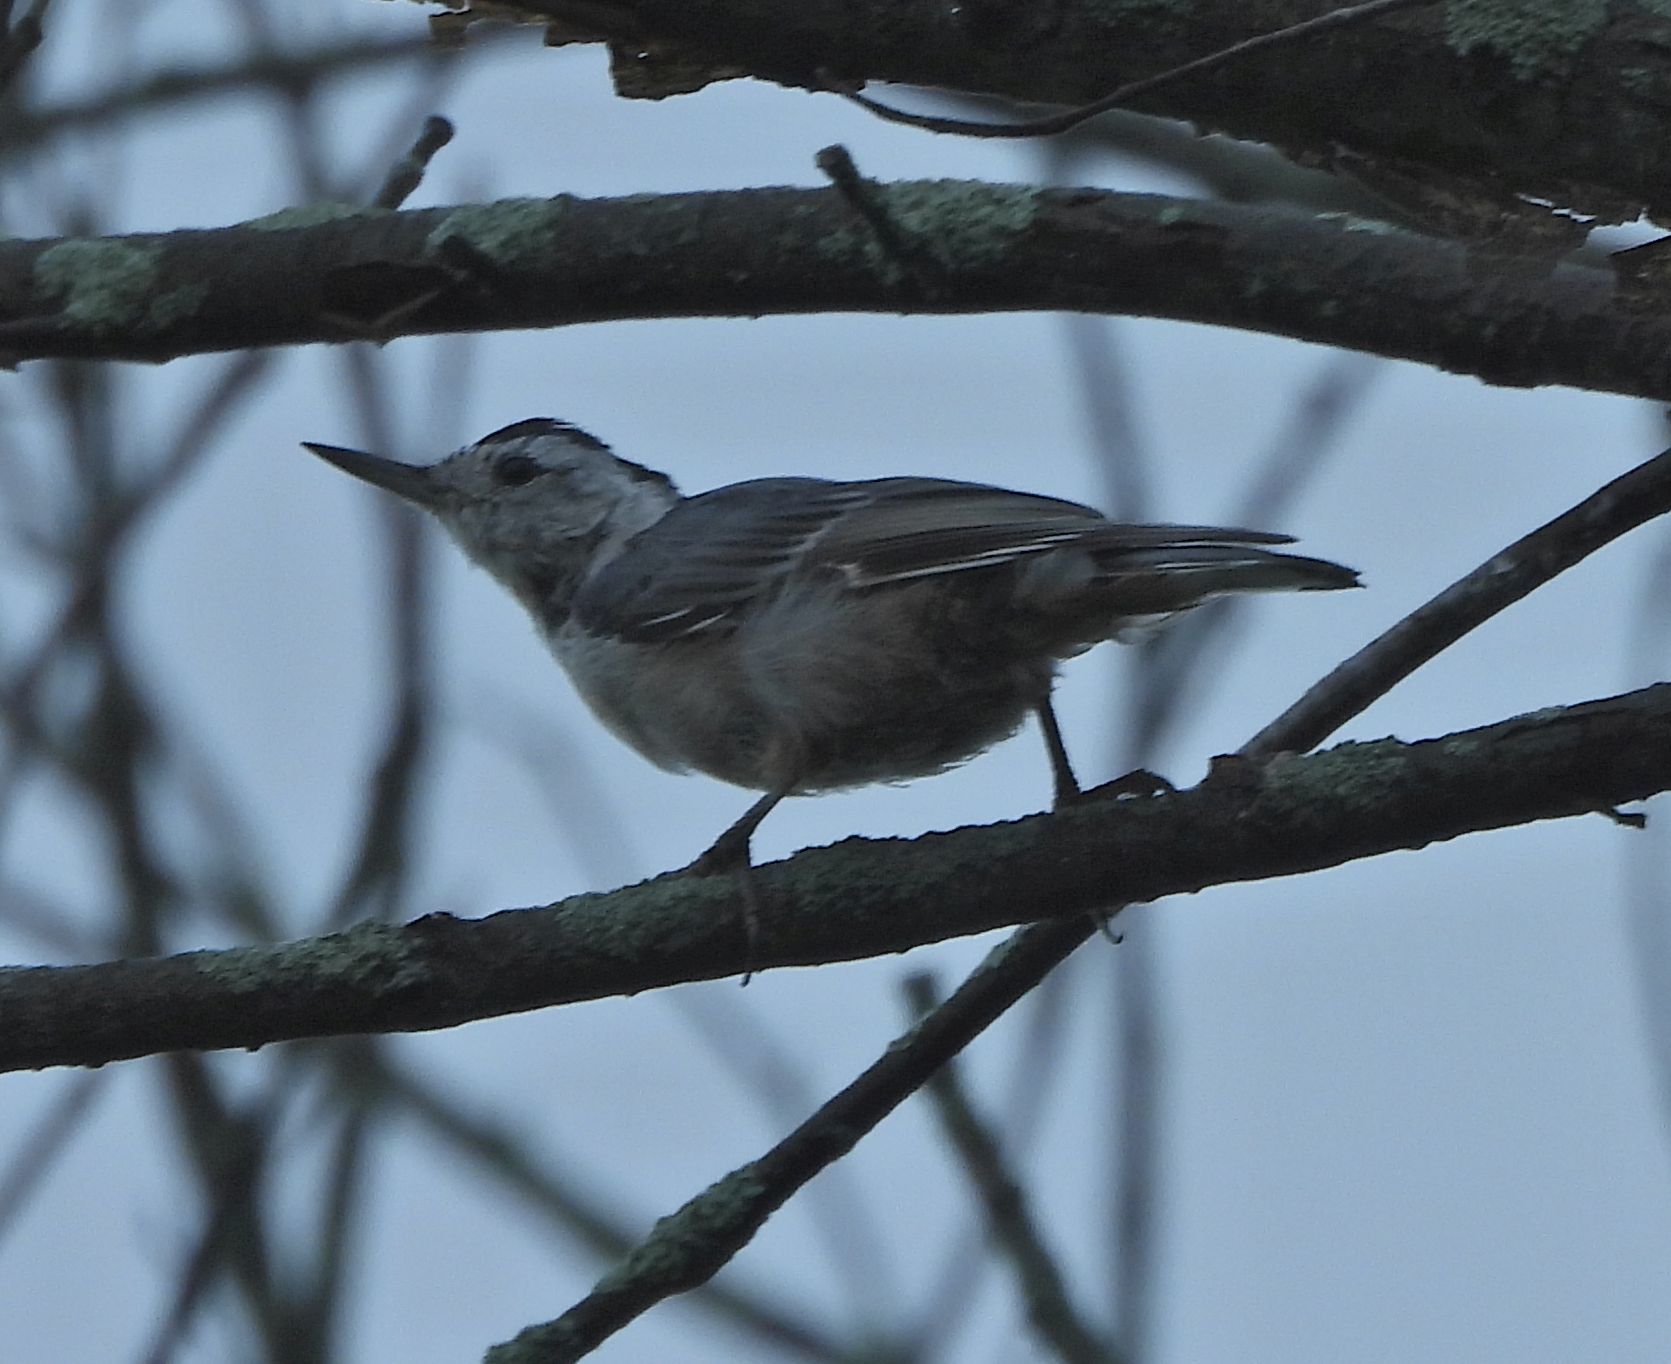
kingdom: Animalia
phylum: Chordata
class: Aves
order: Passeriformes
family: Sittidae
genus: Sitta
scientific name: Sitta carolinensis
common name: White-breasted nuthatch
